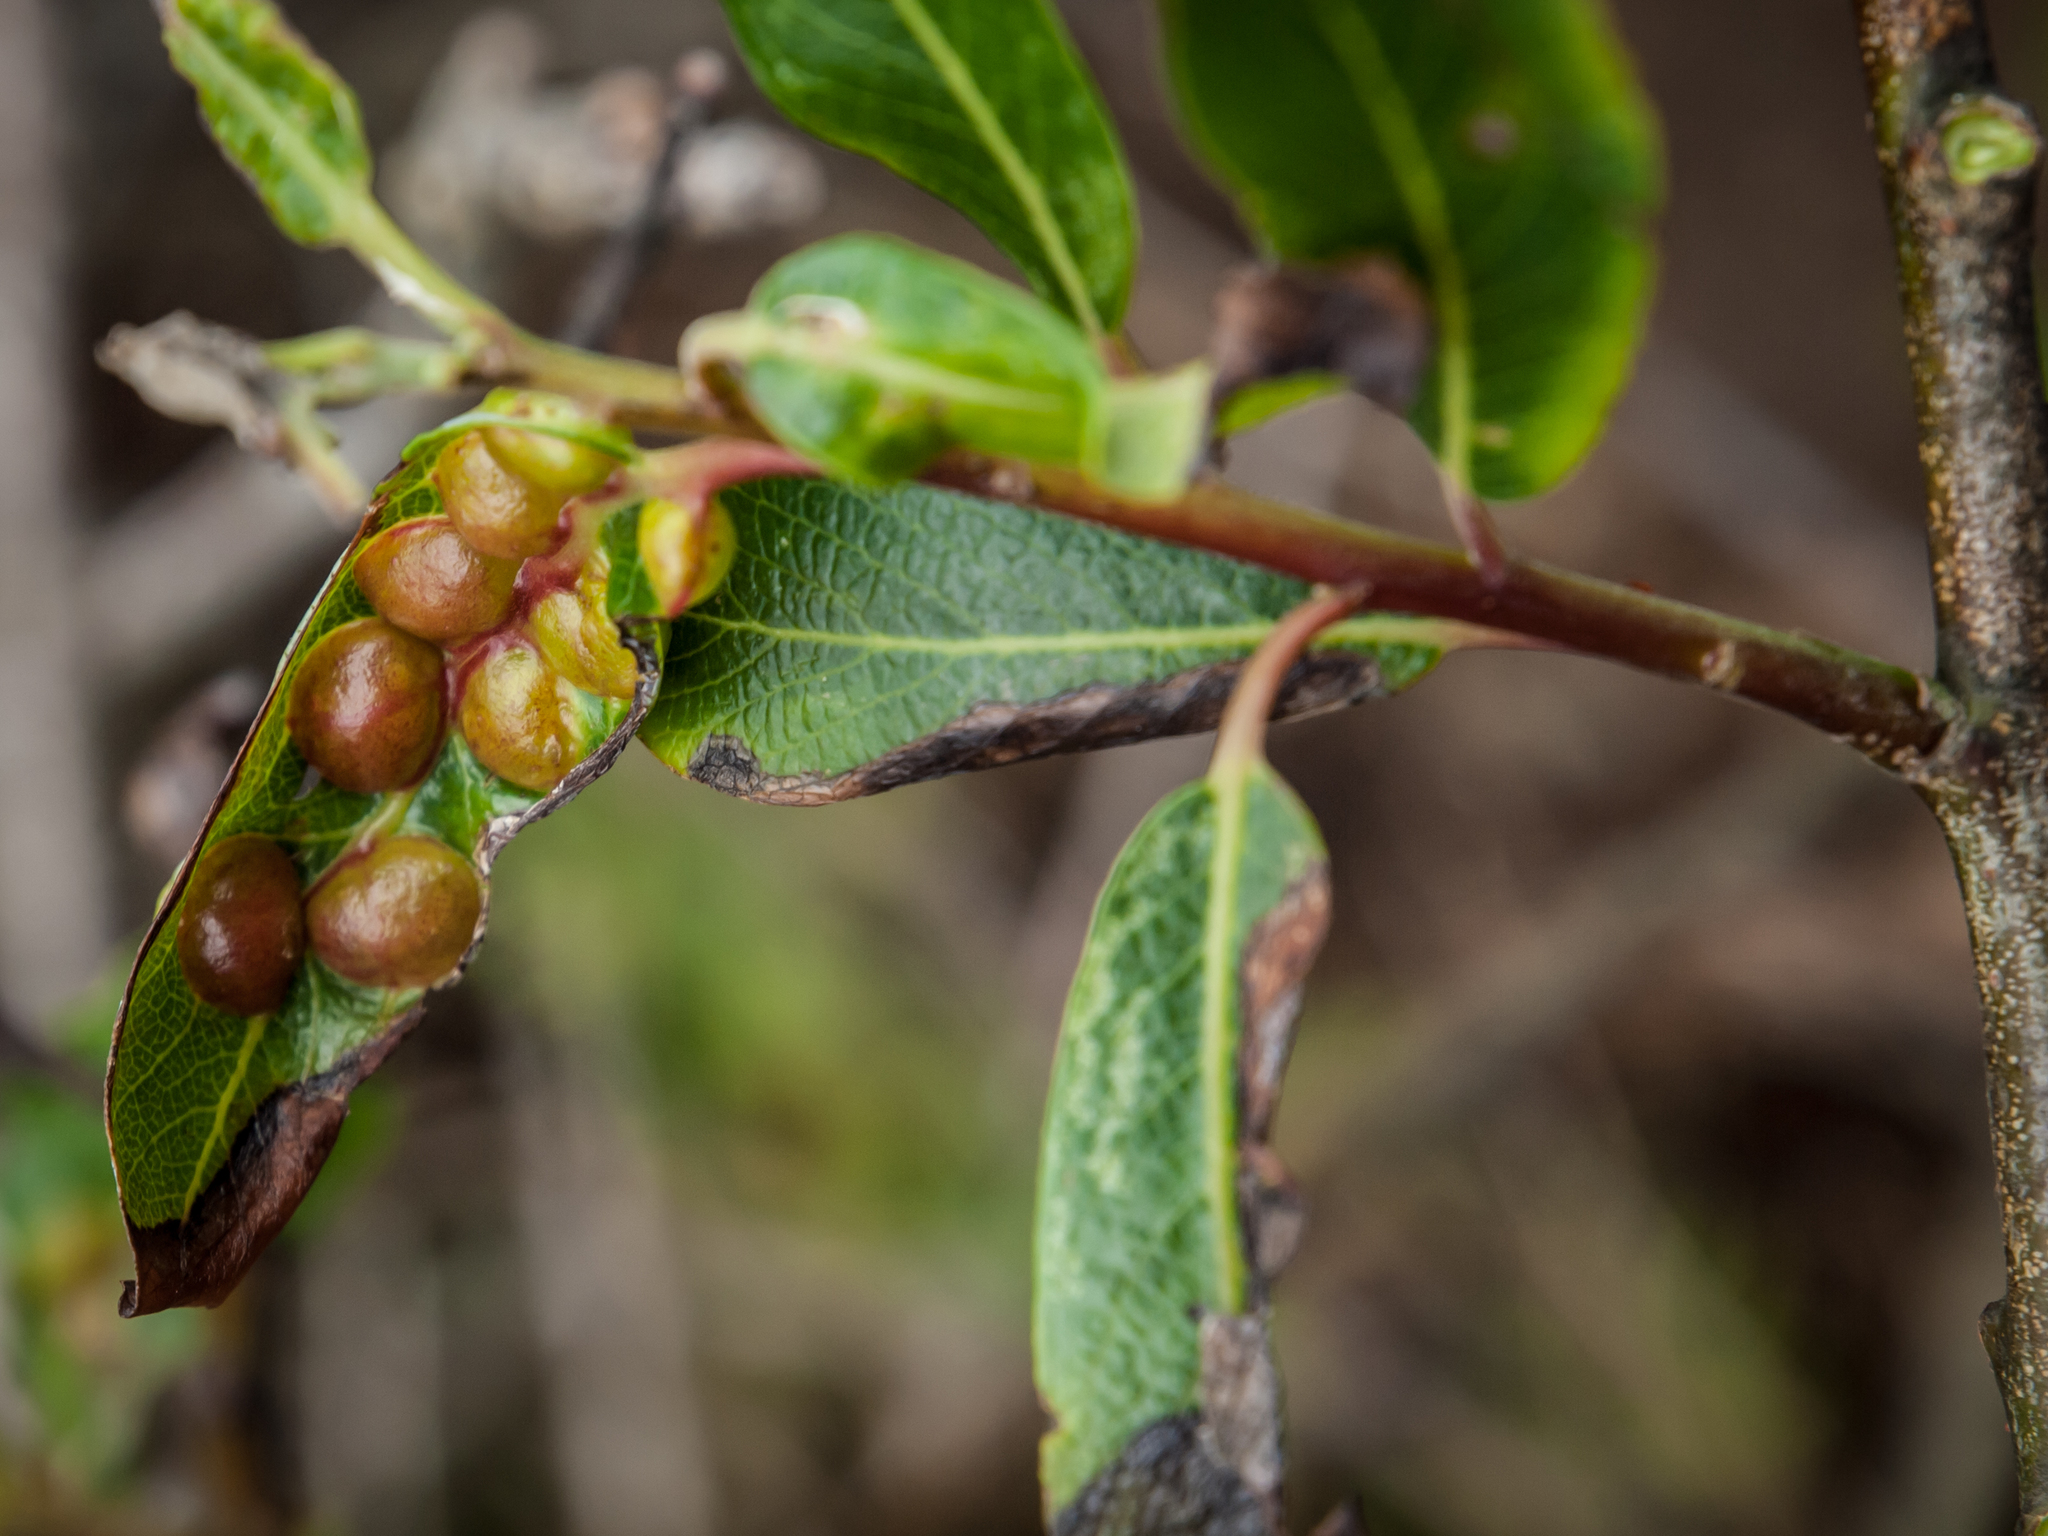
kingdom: Animalia
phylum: Arthropoda
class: Insecta
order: Hymenoptera
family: Tenthredinidae
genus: Euura
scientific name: Euura
